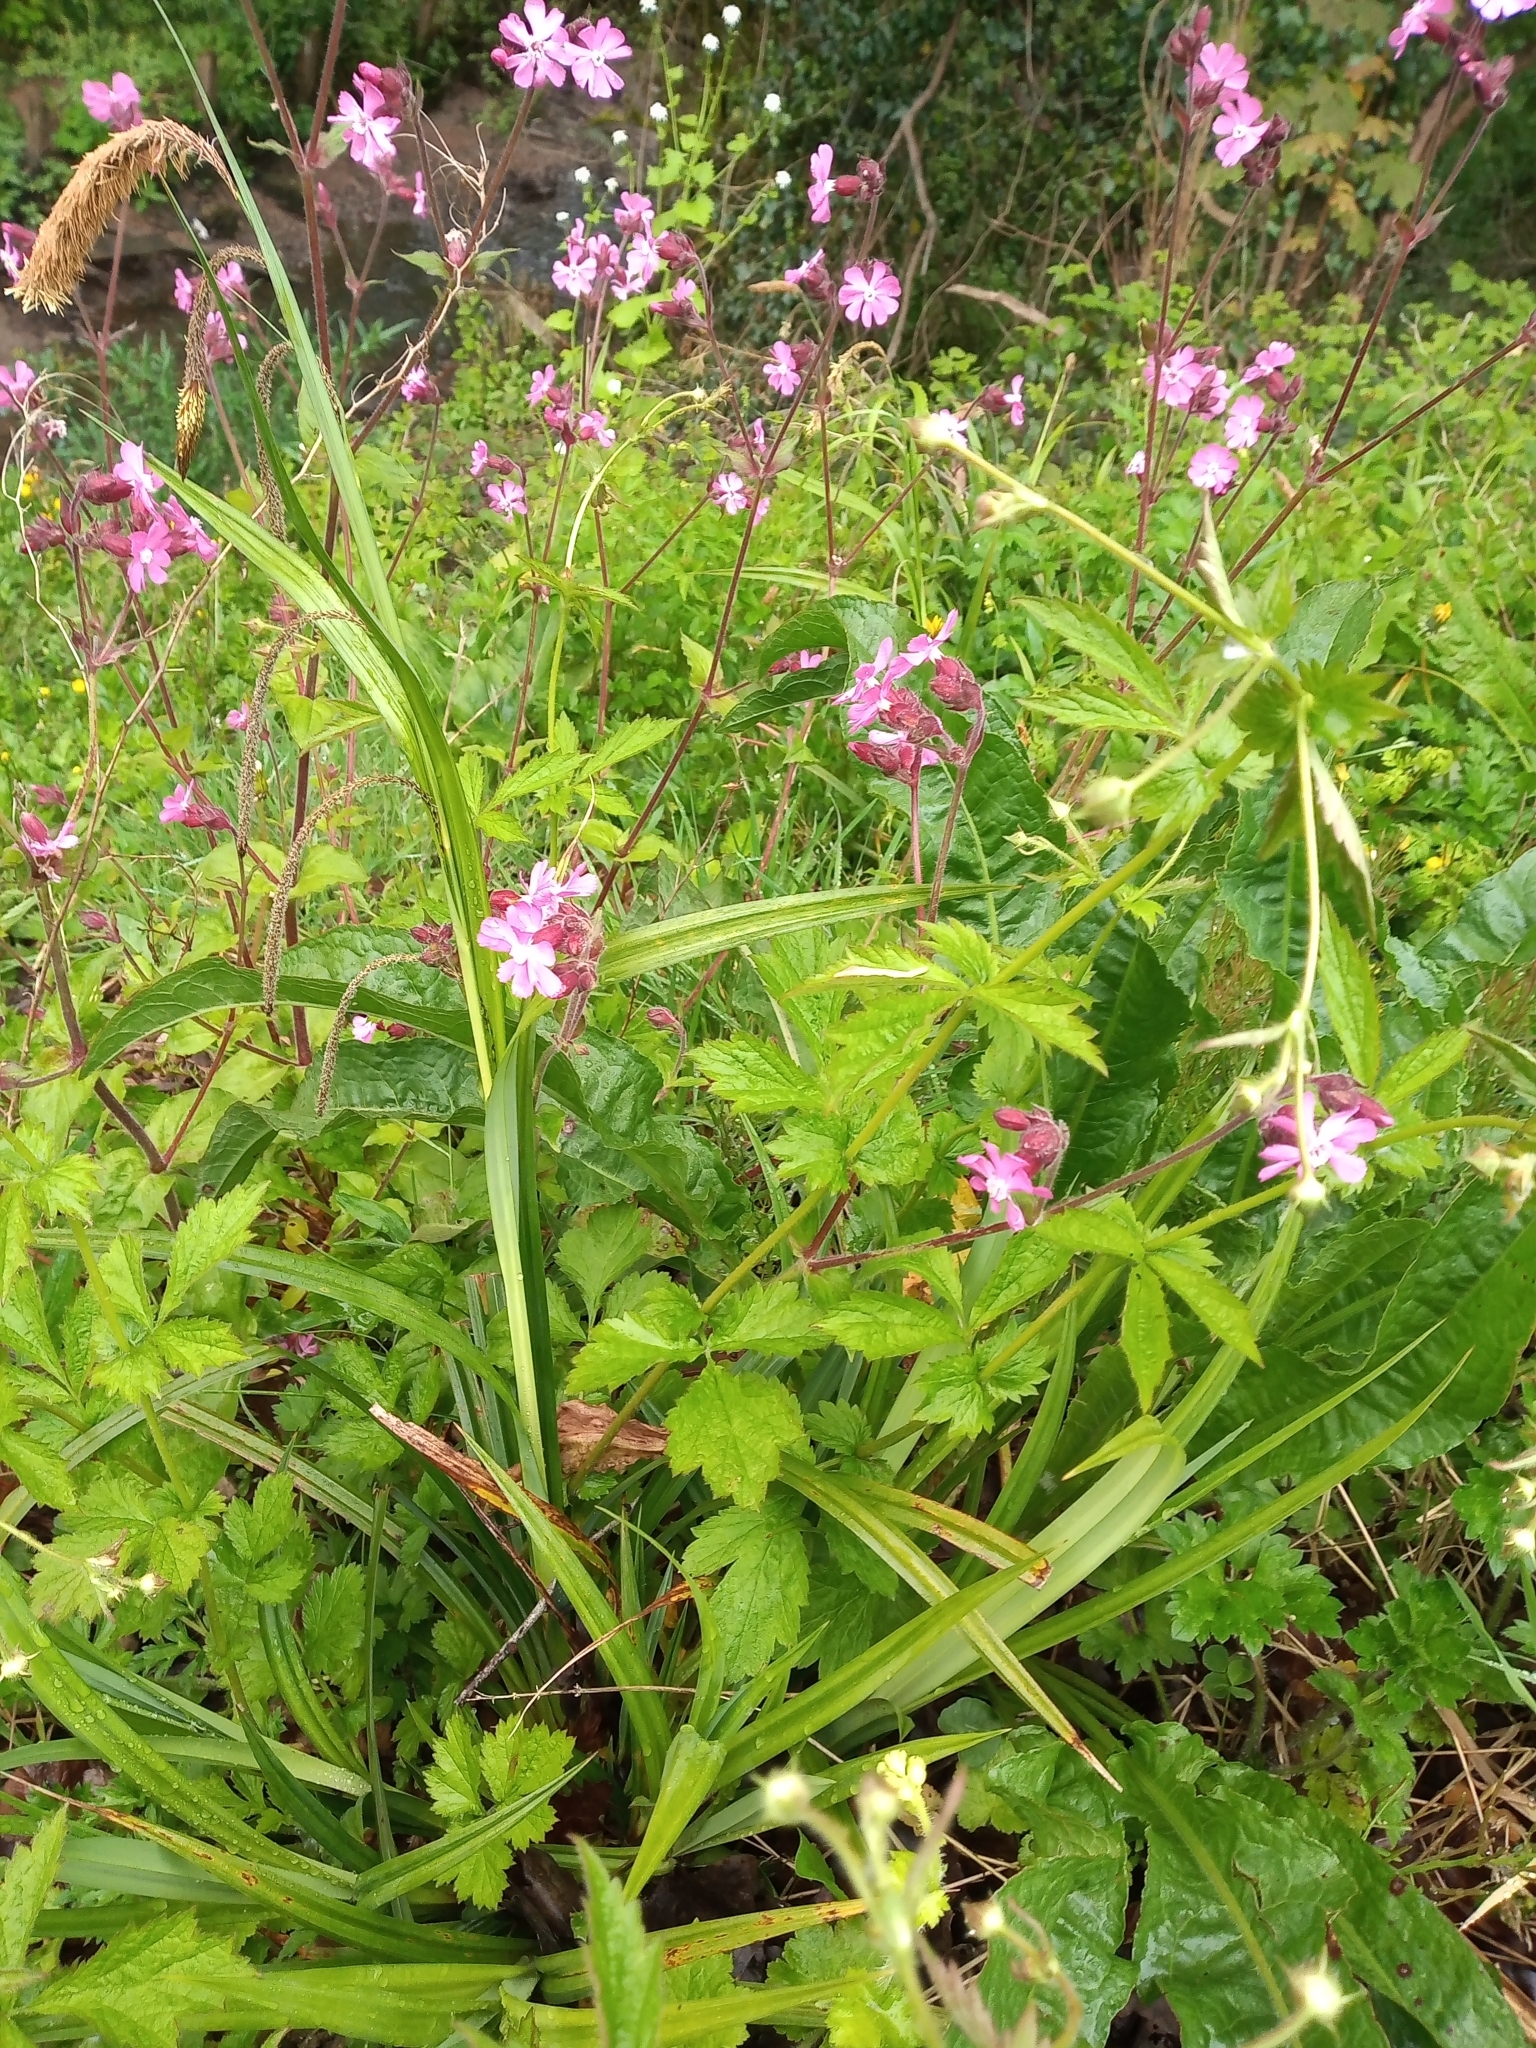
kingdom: Plantae
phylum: Tracheophyta
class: Magnoliopsida
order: Caryophyllales
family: Caryophyllaceae
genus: Silene
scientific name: Silene dioica
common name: Red campion
